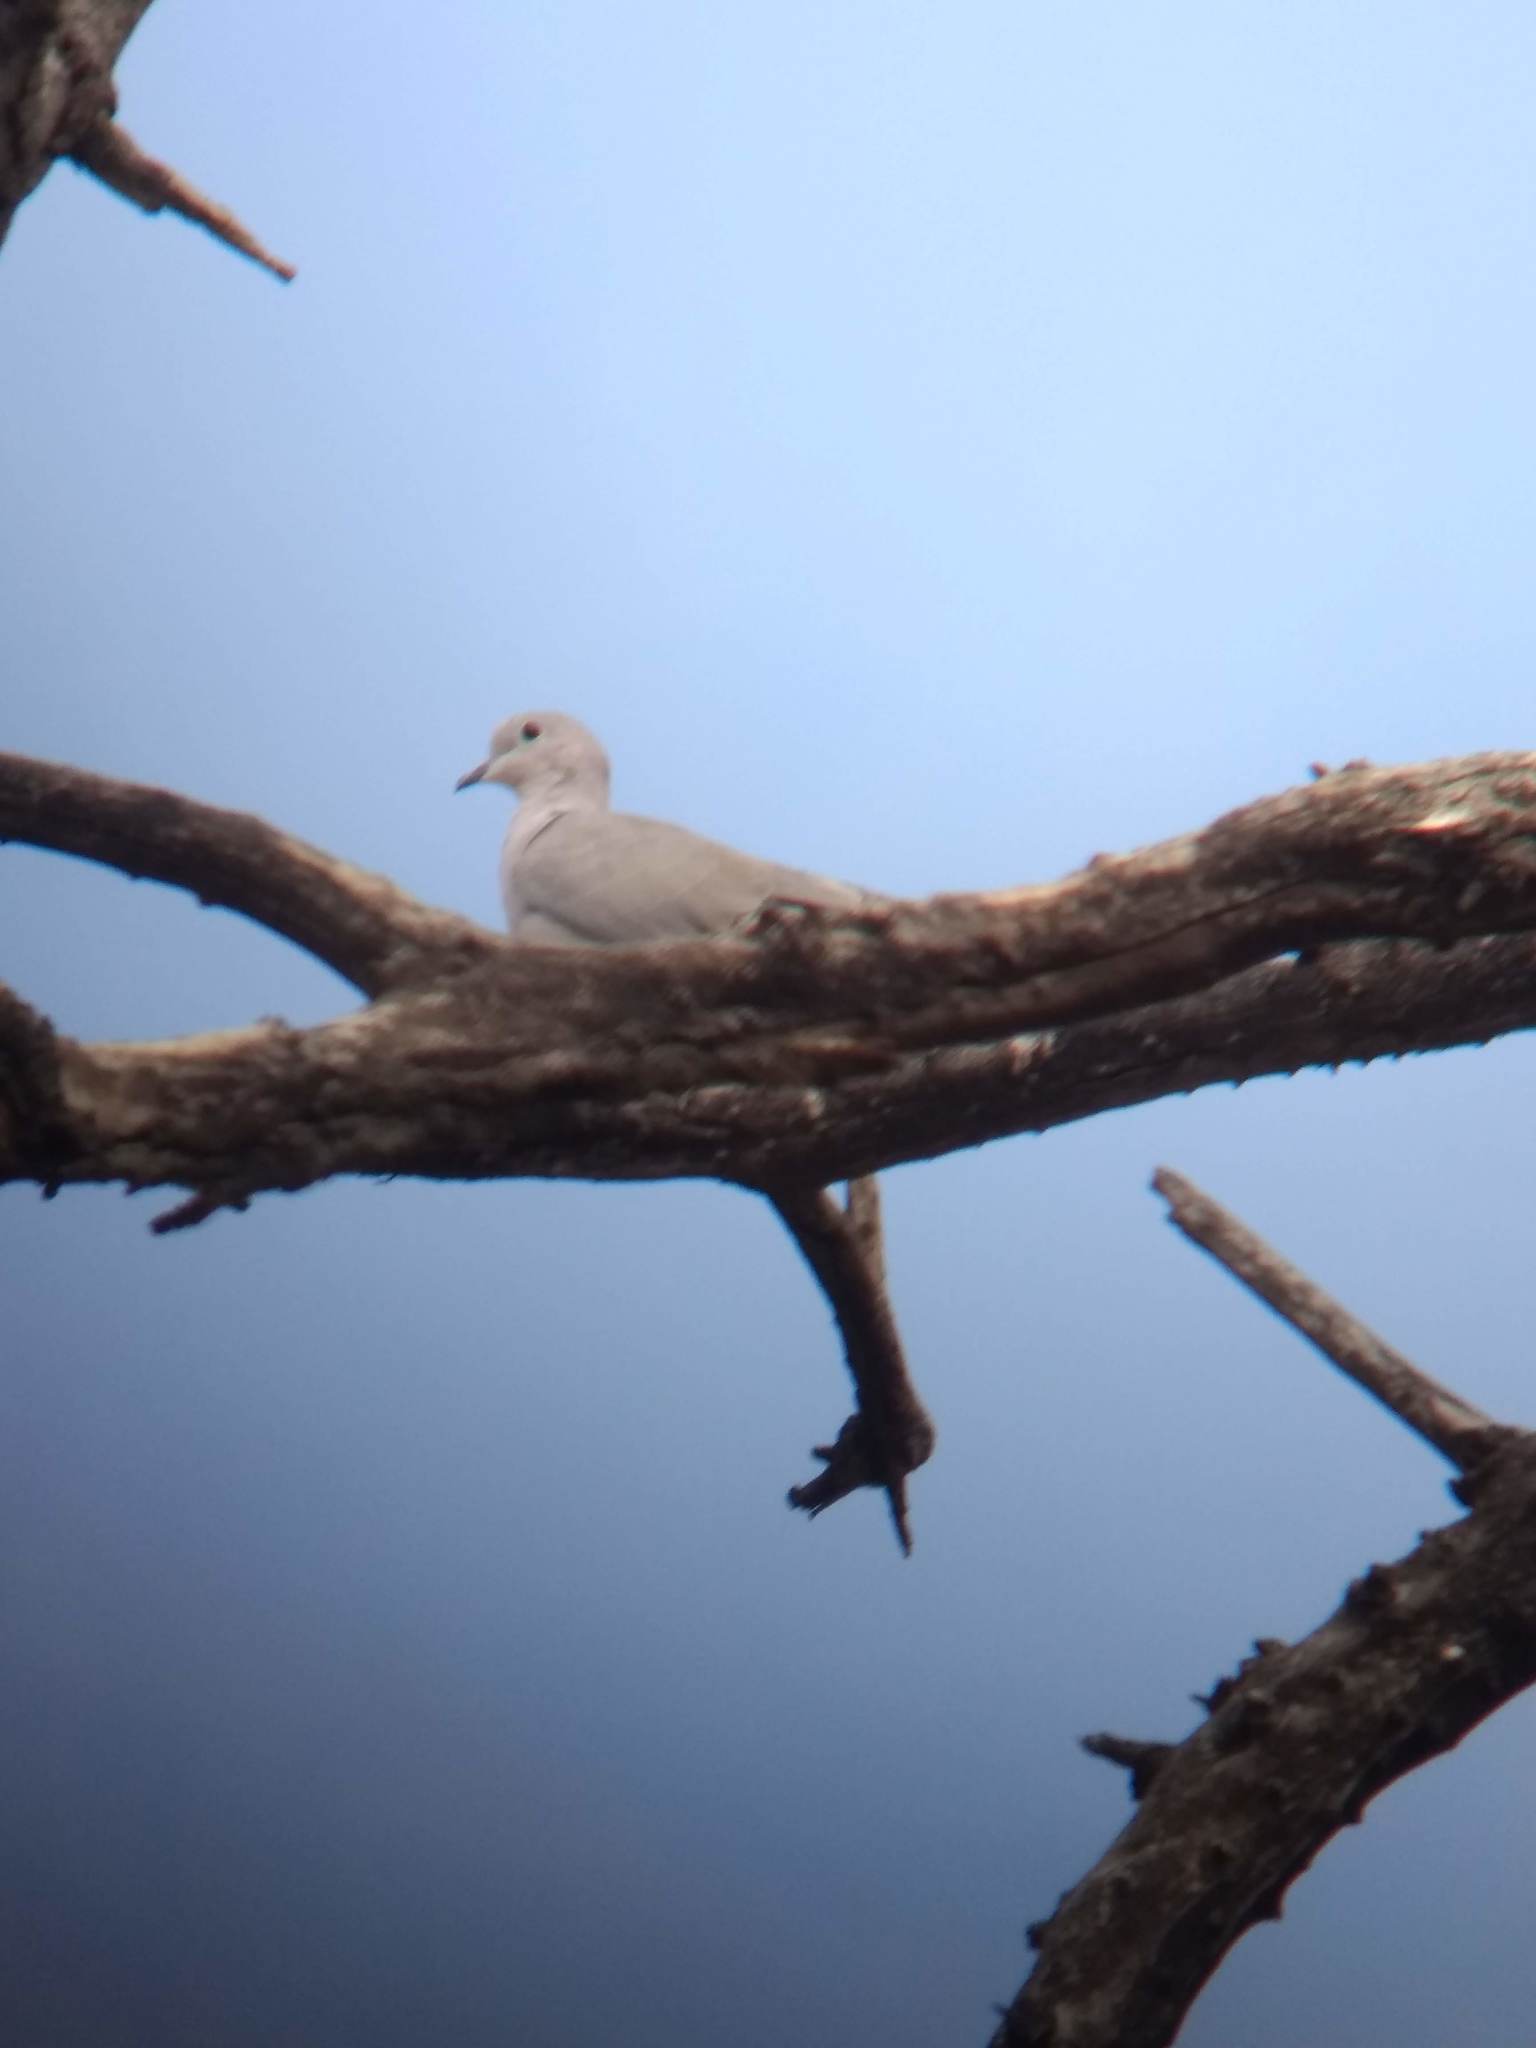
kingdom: Animalia
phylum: Chordata
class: Aves
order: Columbiformes
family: Columbidae
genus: Streptopelia
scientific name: Streptopelia decaocto
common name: Eurasian collared dove
